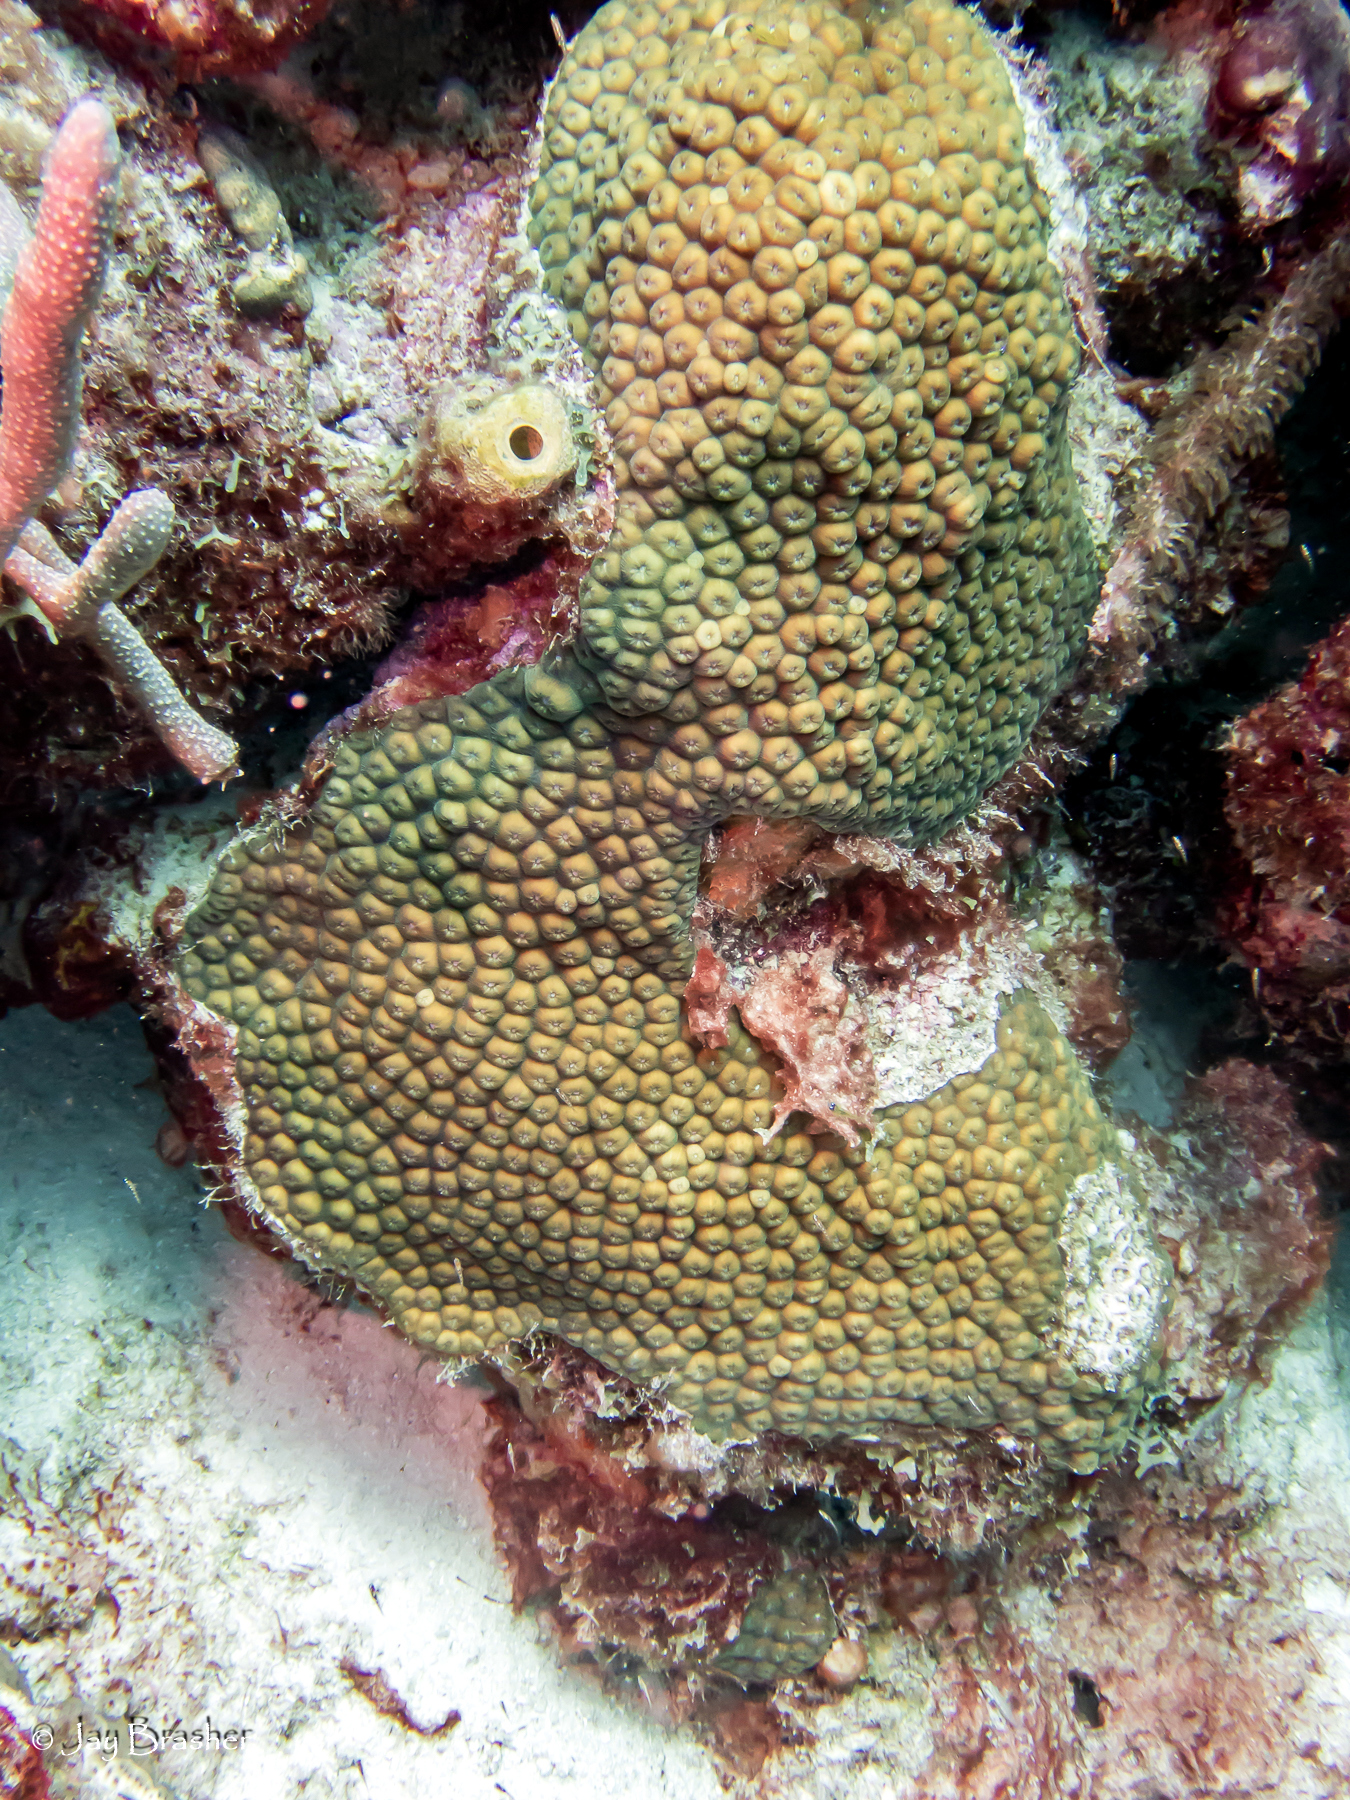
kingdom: Animalia
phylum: Cnidaria
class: Anthozoa
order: Scleractinia
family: Montastraeidae
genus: Montastraea
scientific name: Montastraea cavernosa
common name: Great star coral
